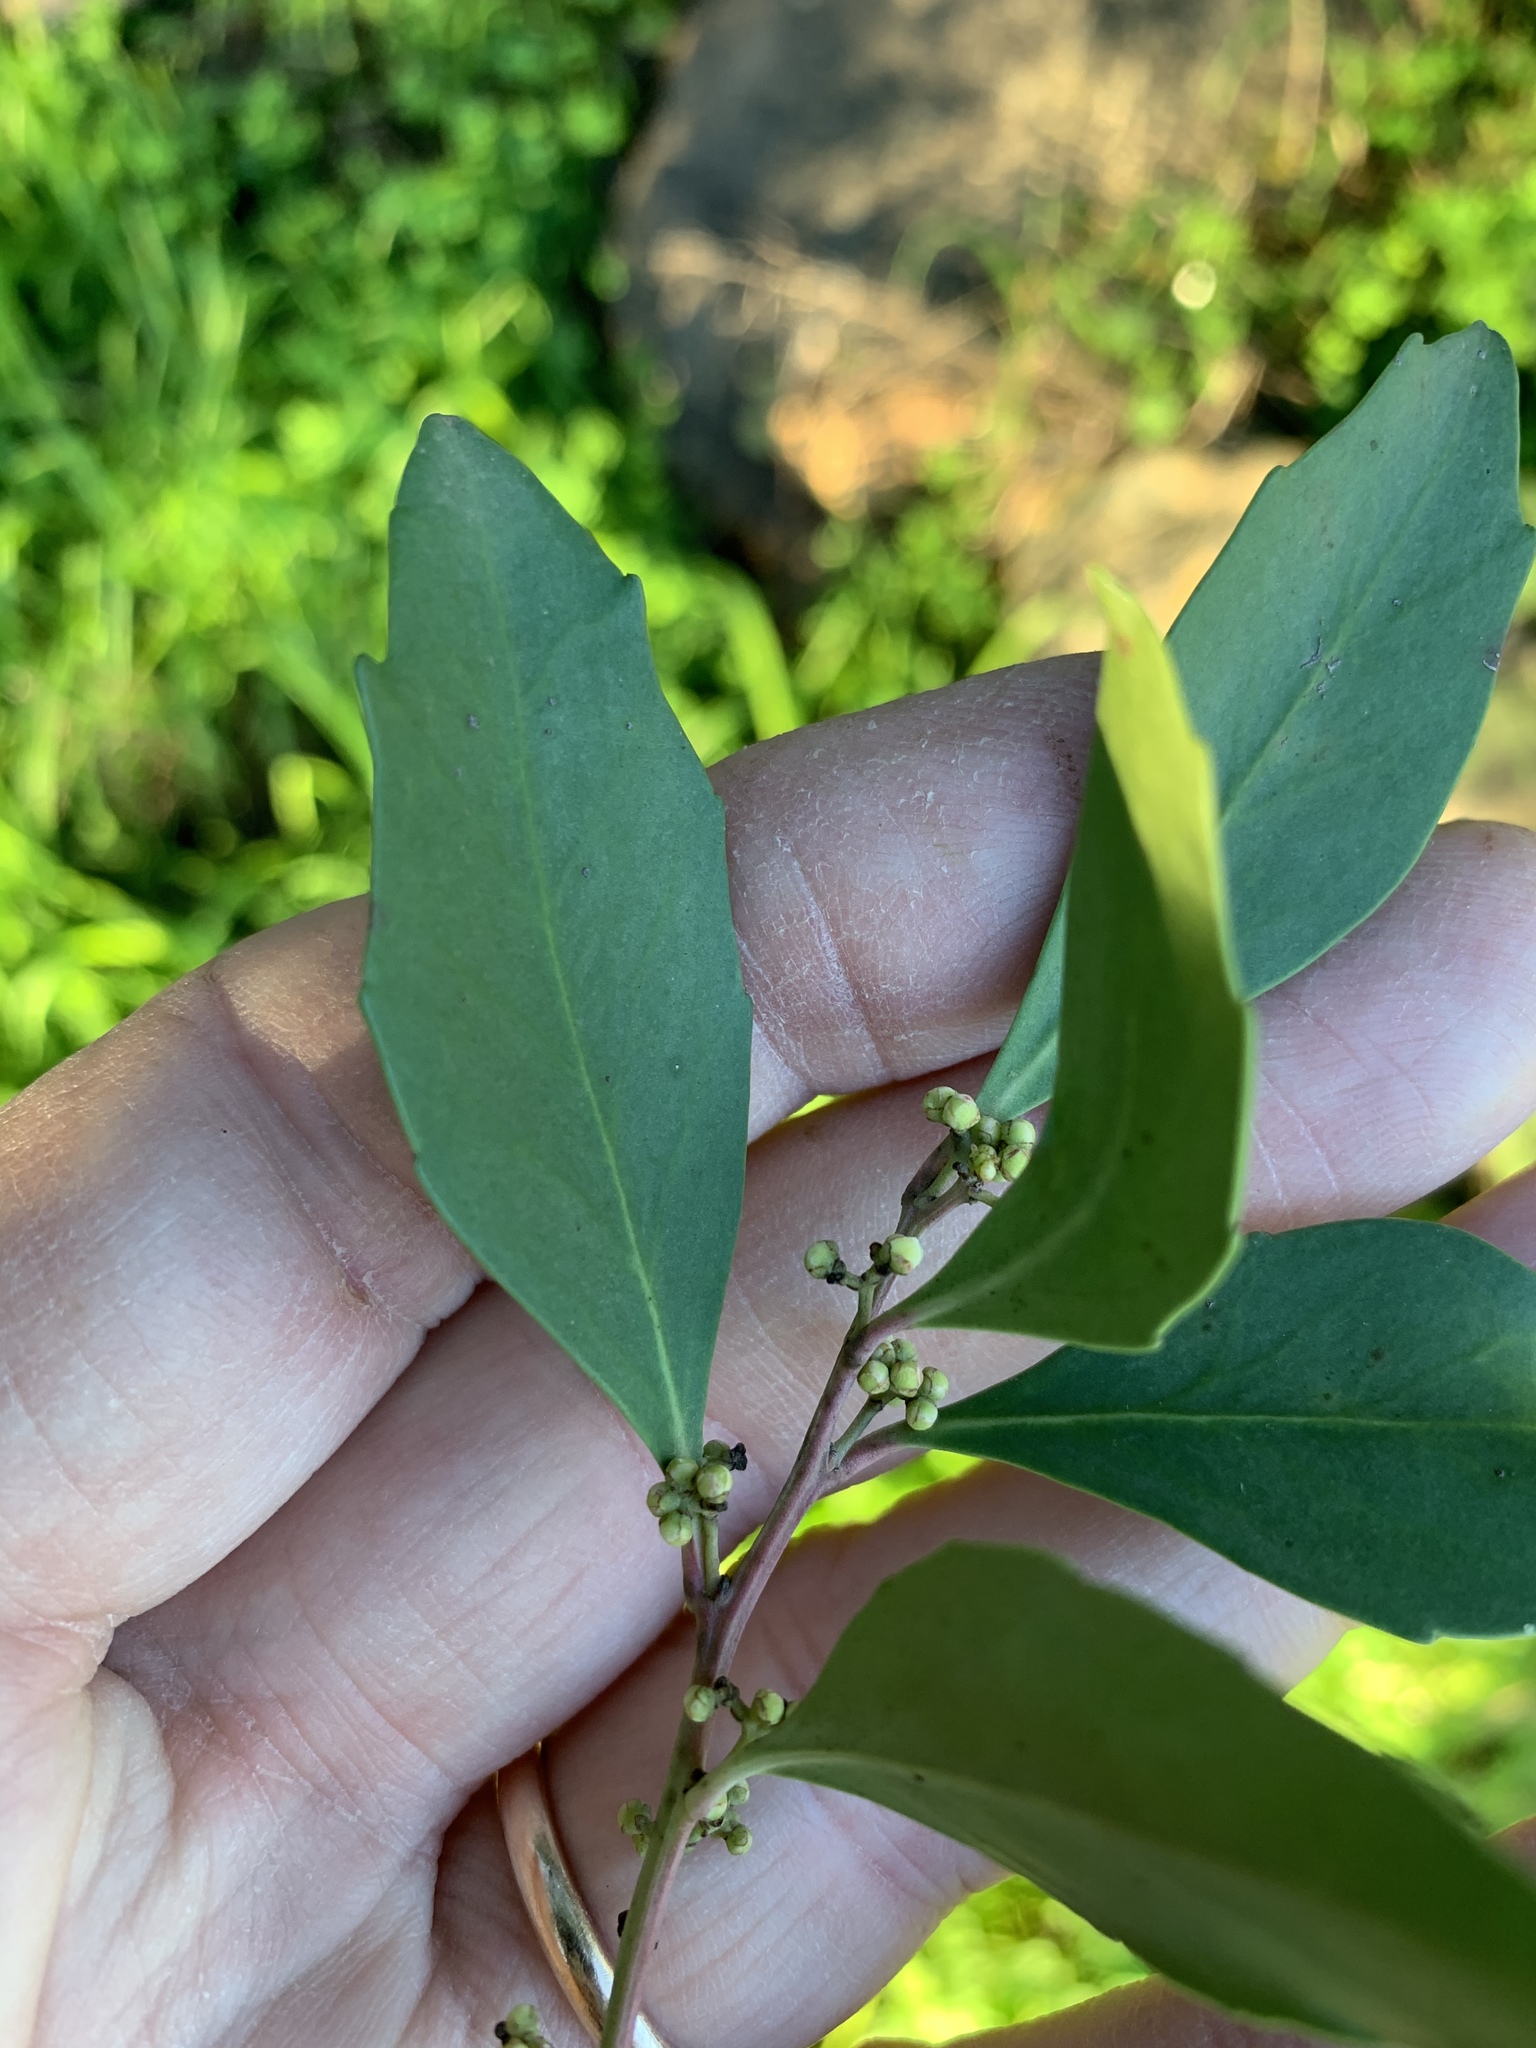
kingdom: Plantae
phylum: Tracheophyta
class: Magnoliopsida
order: Celastrales
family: Celastraceae
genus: Gymnosporia
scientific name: Gymnosporia laurina
